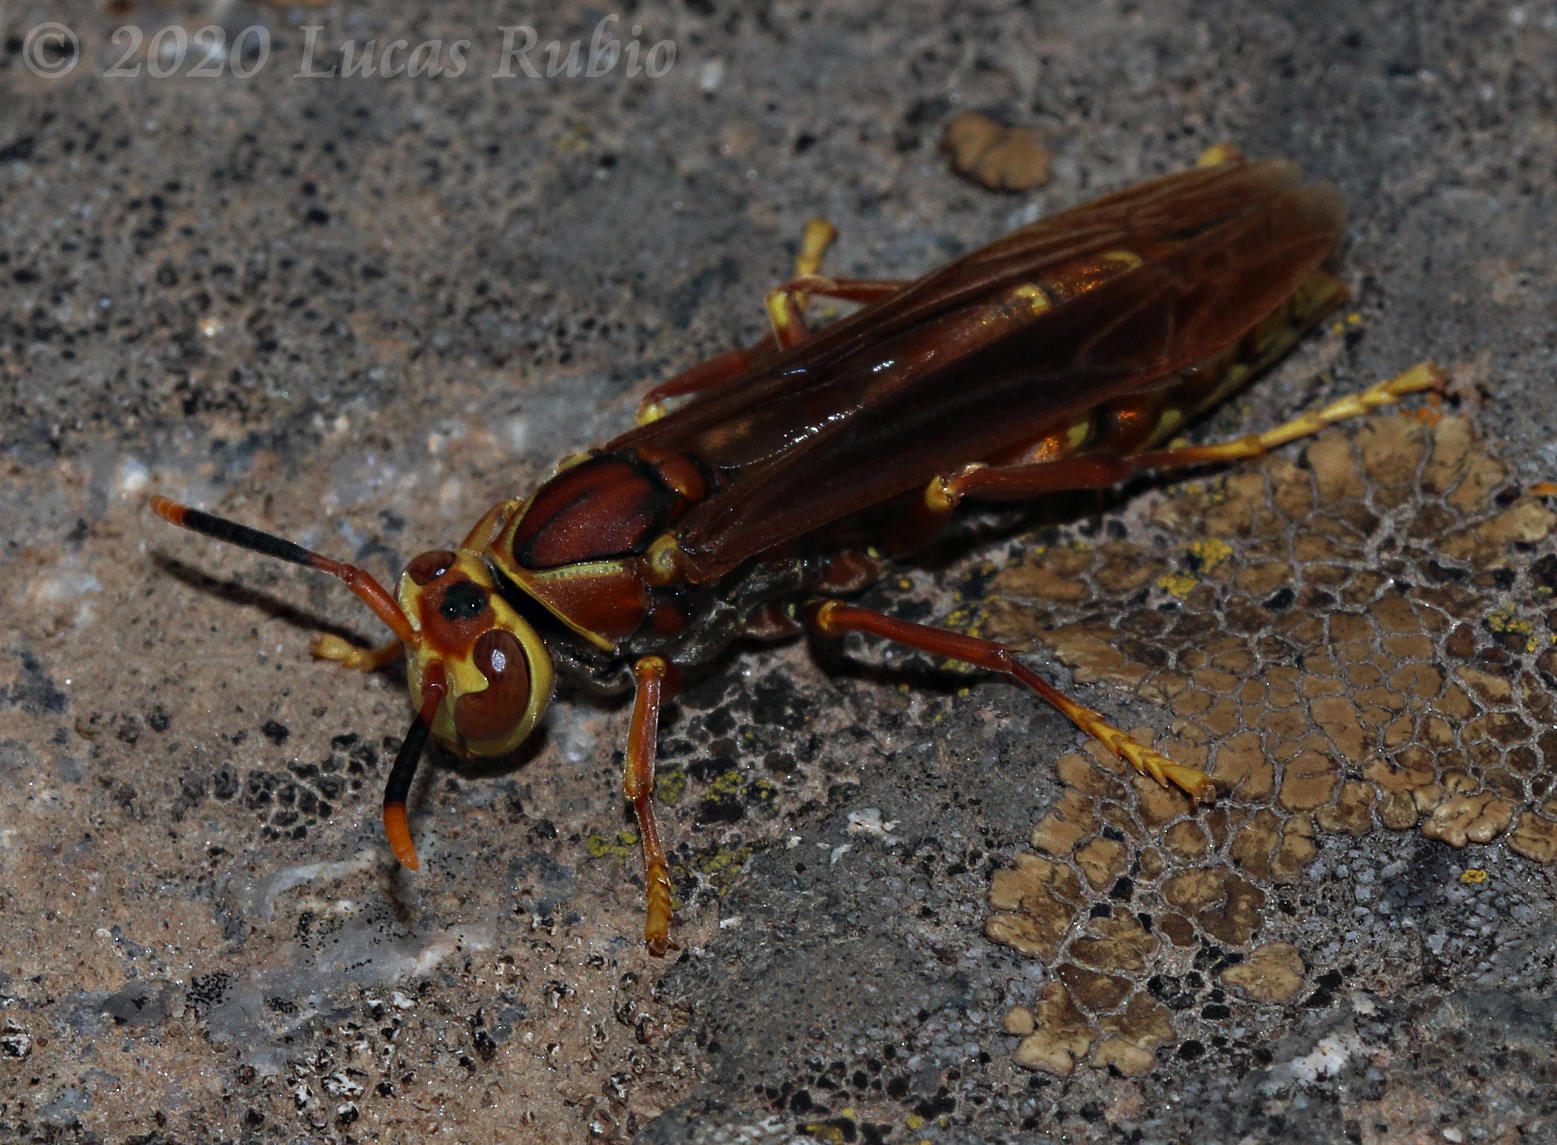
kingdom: Animalia
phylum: Arthropoda
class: Insecta
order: Hymenoptera
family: Eumenidae
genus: Polistes
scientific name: Polistes cavapyta
